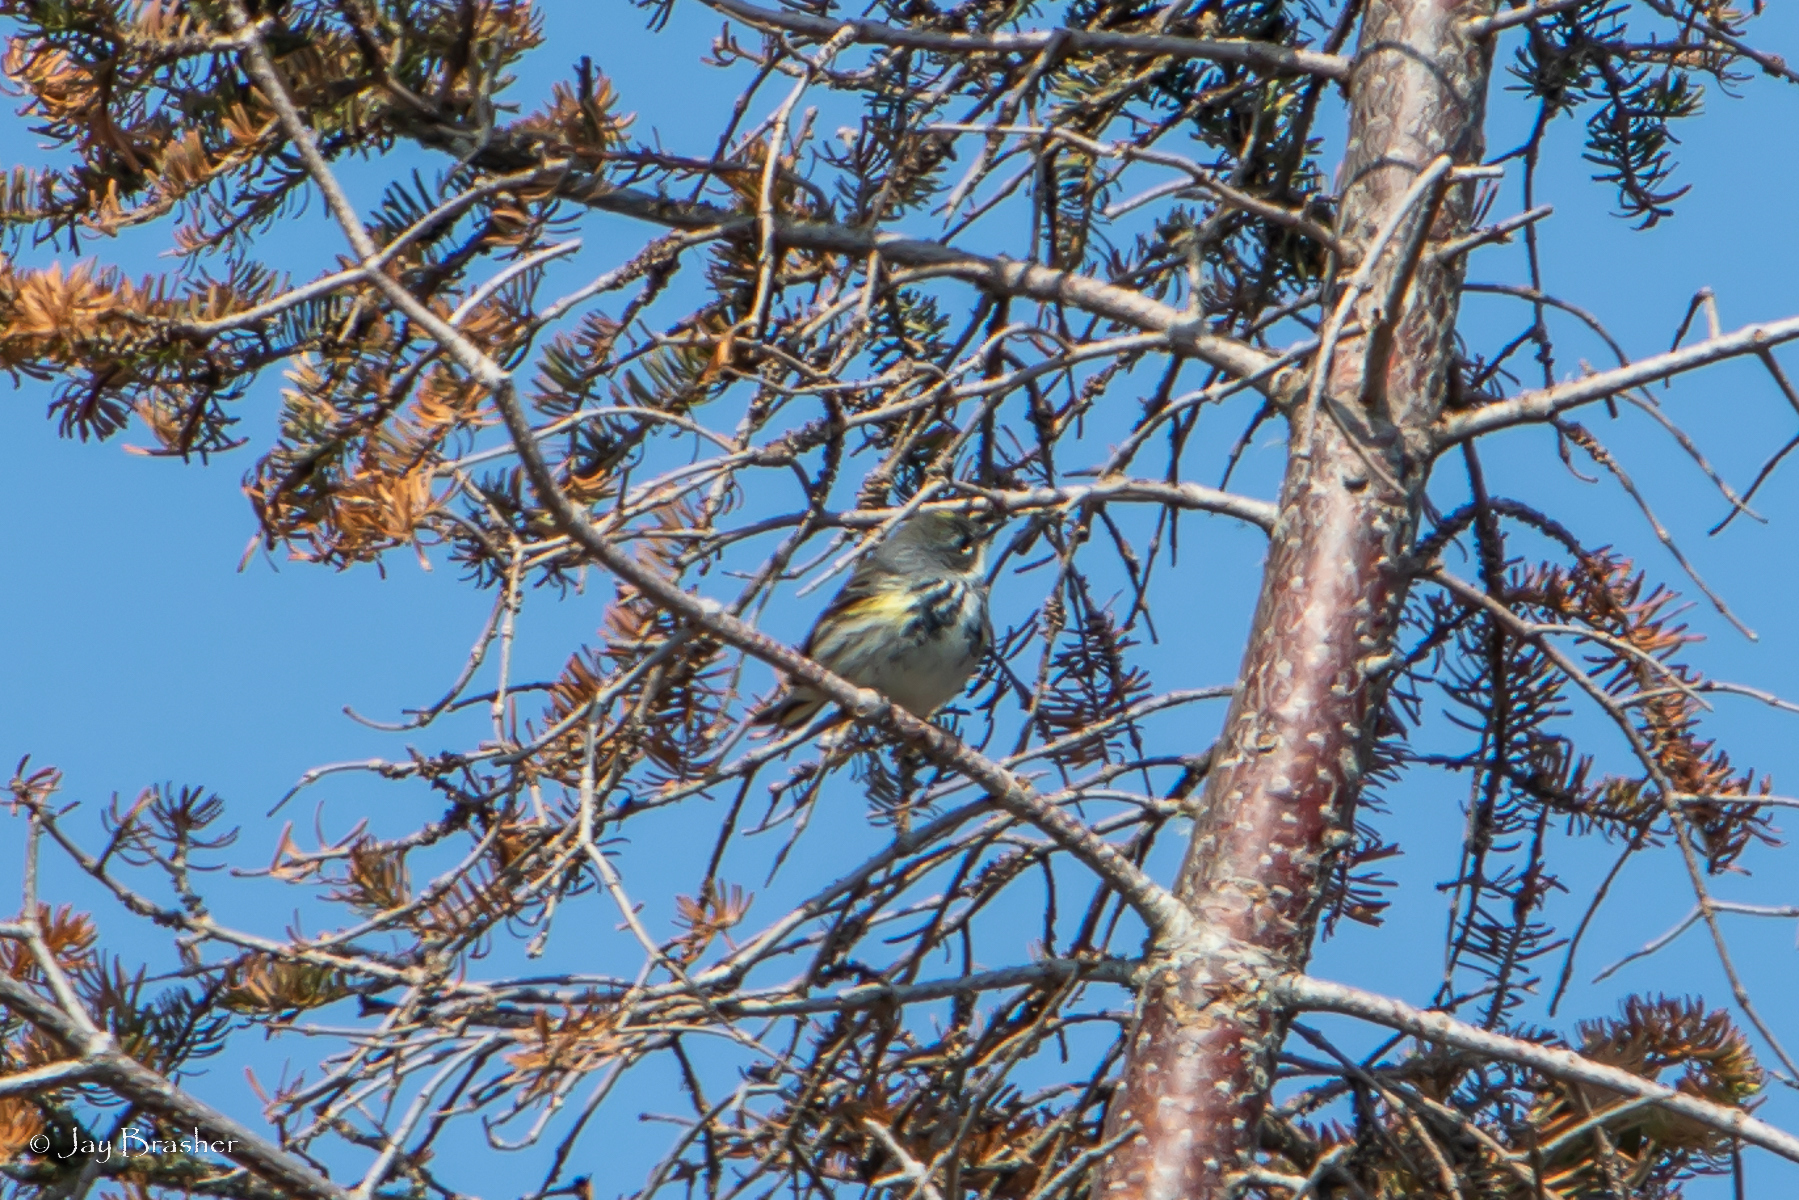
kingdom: Animalia
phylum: Chordata
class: Aves
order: Passeriformes
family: Parulidae
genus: Setophaga
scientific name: Setophaga coronata
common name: Myrtle warbler
